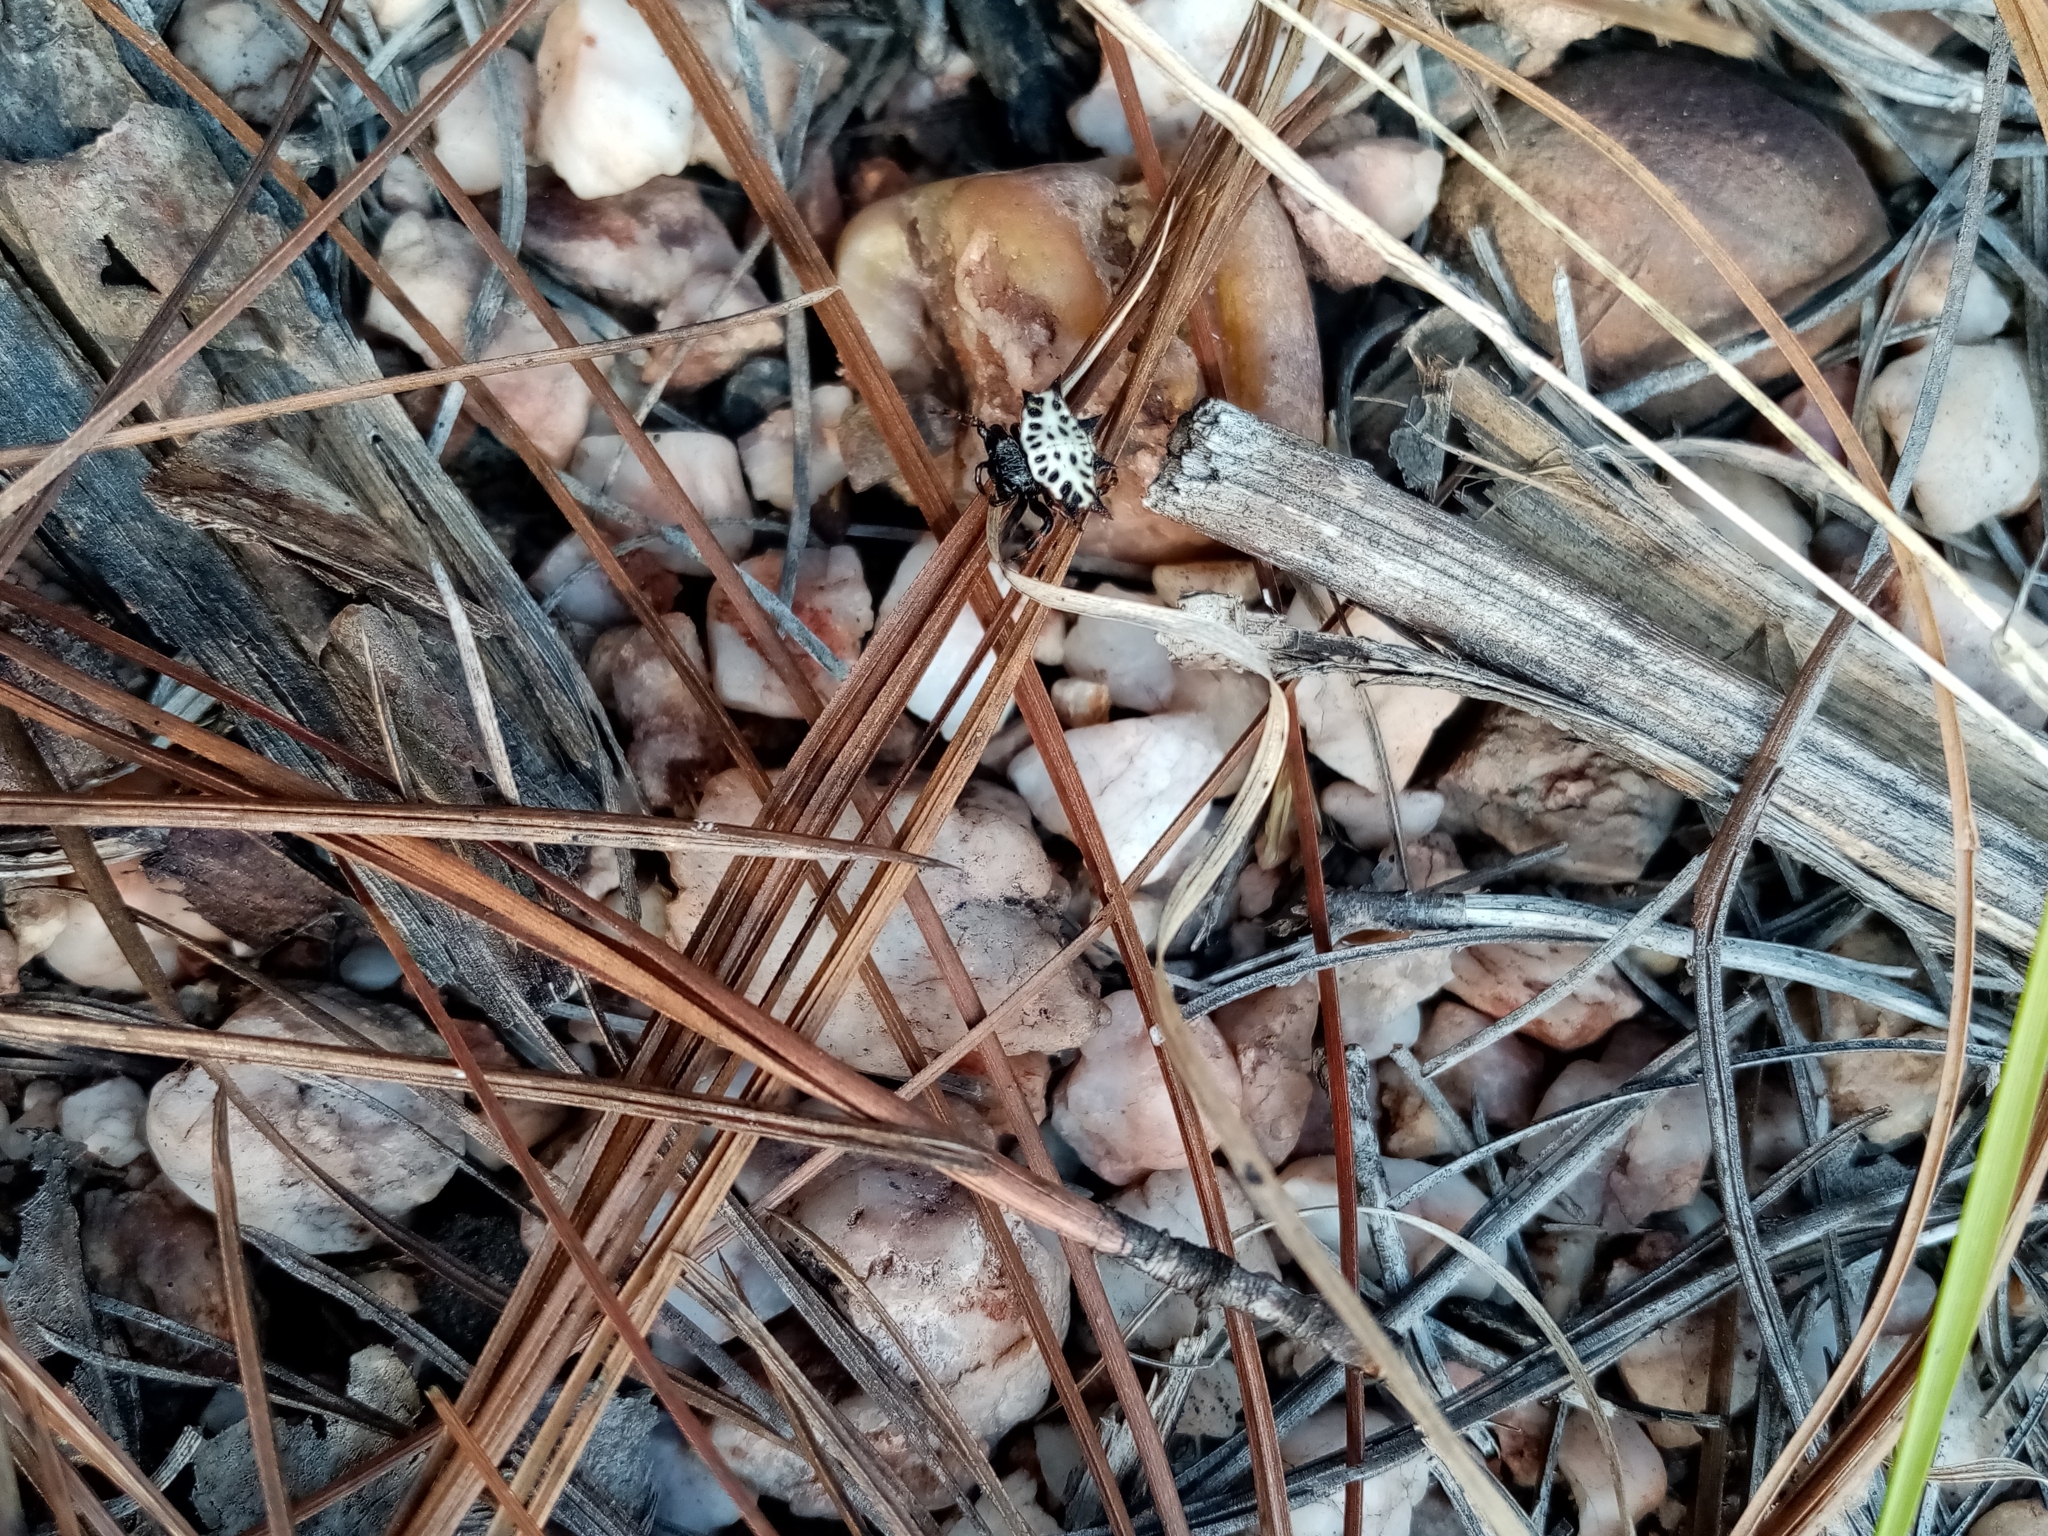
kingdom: Animalia
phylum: Arthropoda
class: Arachnida
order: Araneae
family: Araneidae
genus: Gasteracantha
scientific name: Gasteracantha cancriformis
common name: Orb weavers
